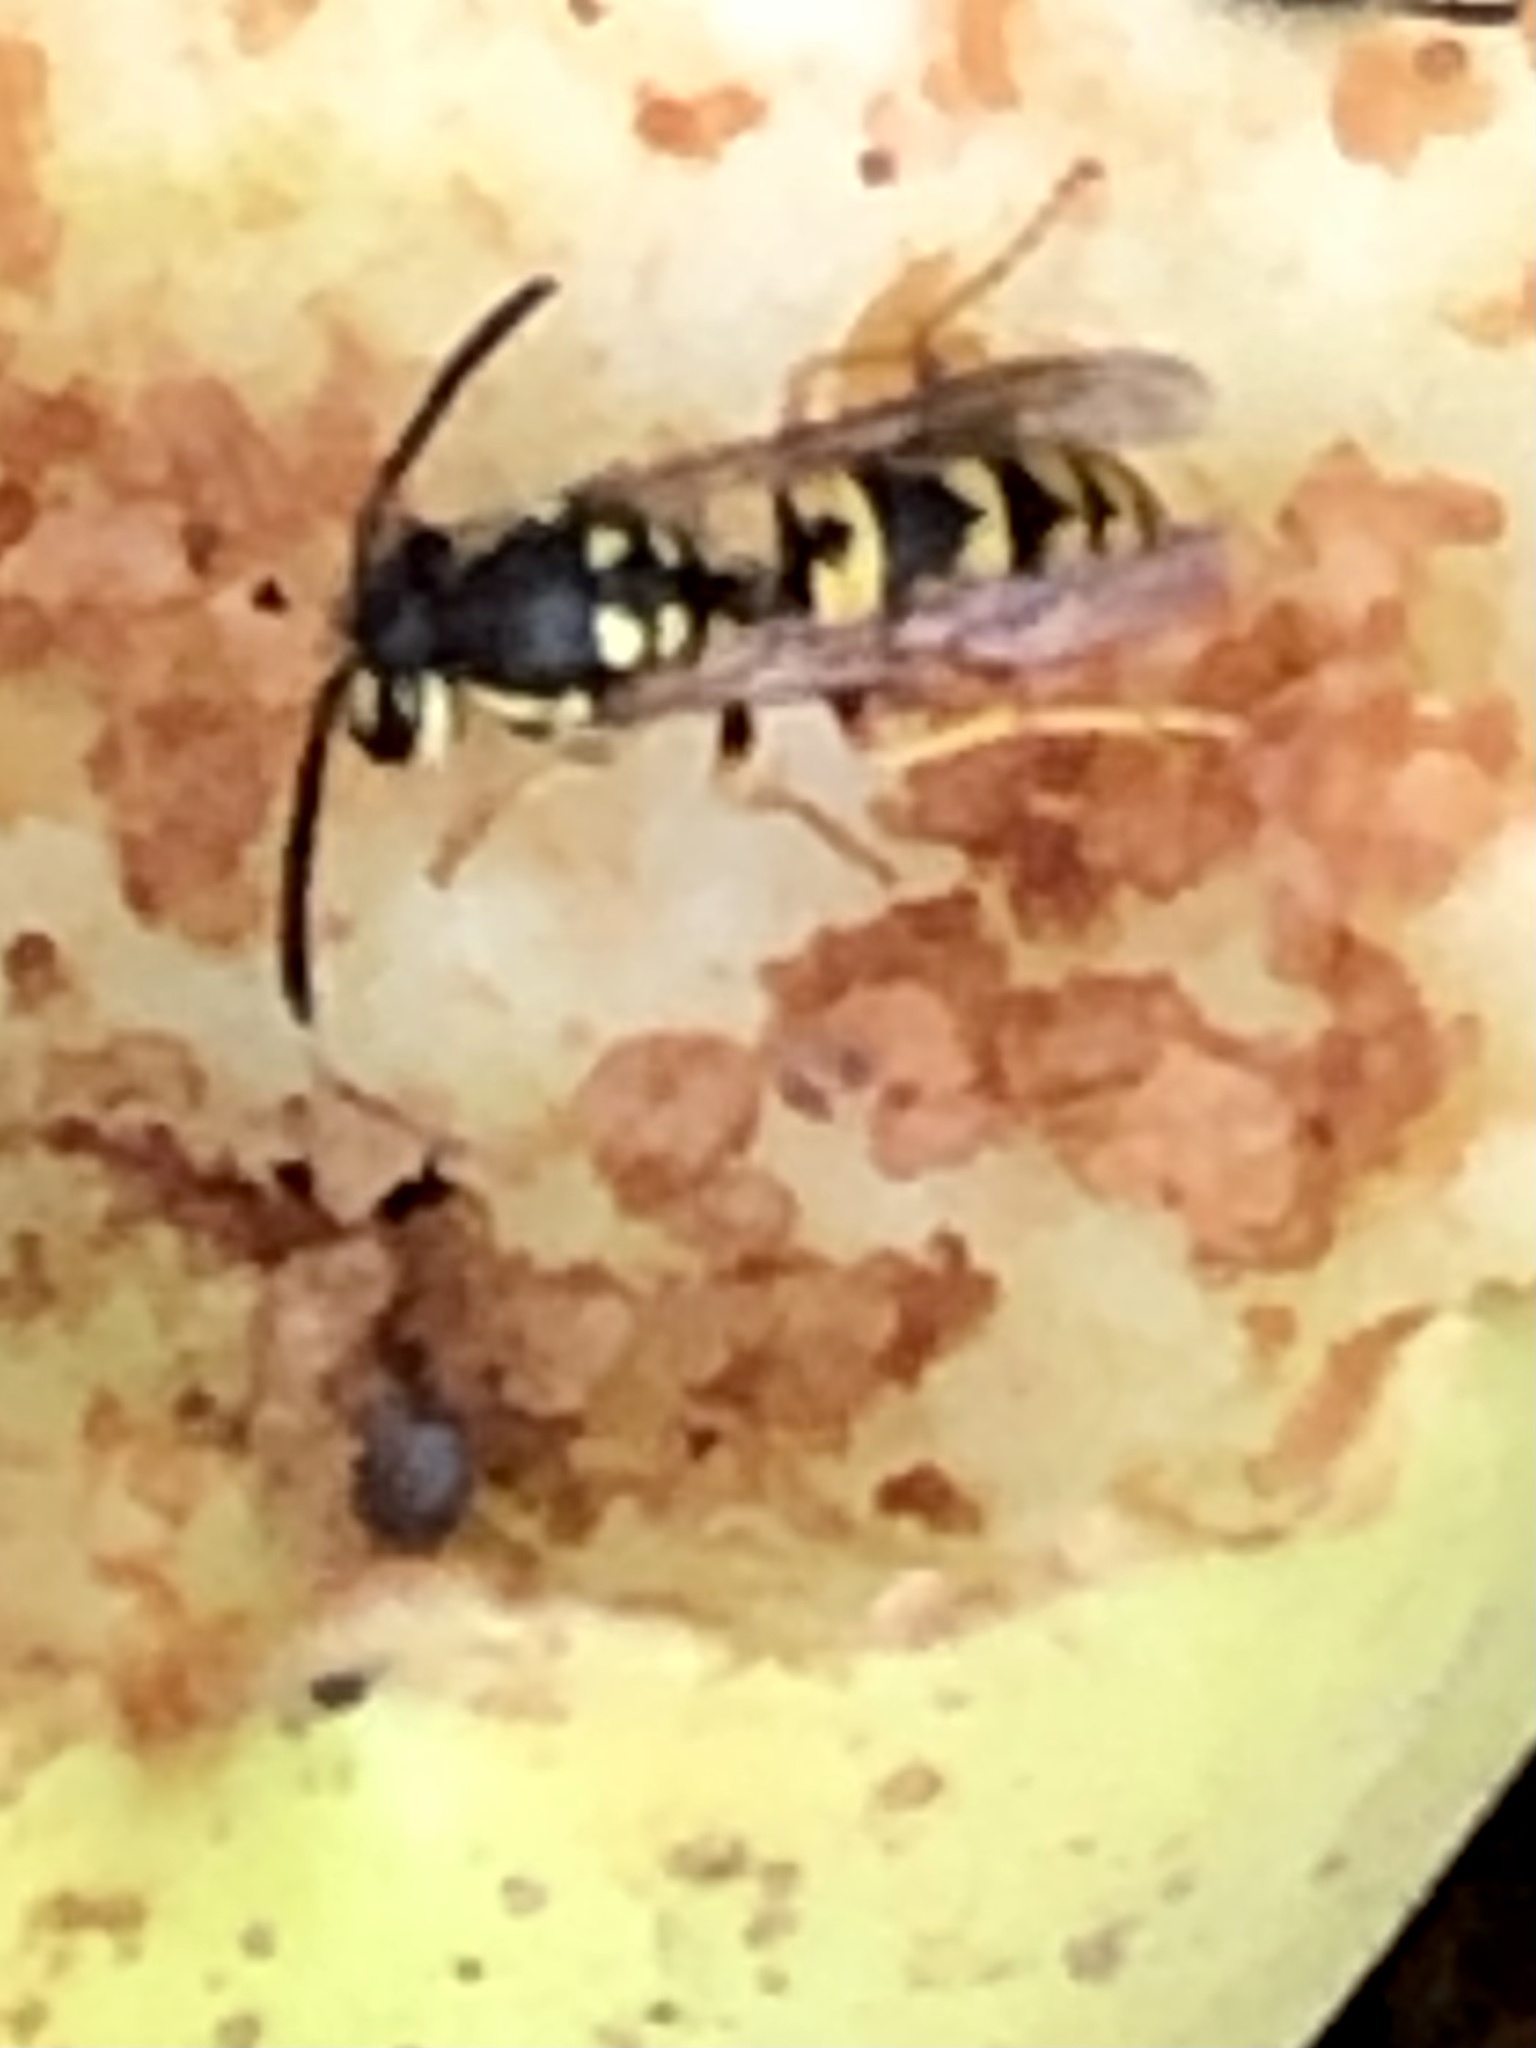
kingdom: Animalia
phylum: Arthropoda
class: Insecta
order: Hymenoptera
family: Vespidae
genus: Vespula
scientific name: Vespula germanica
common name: German wasp
